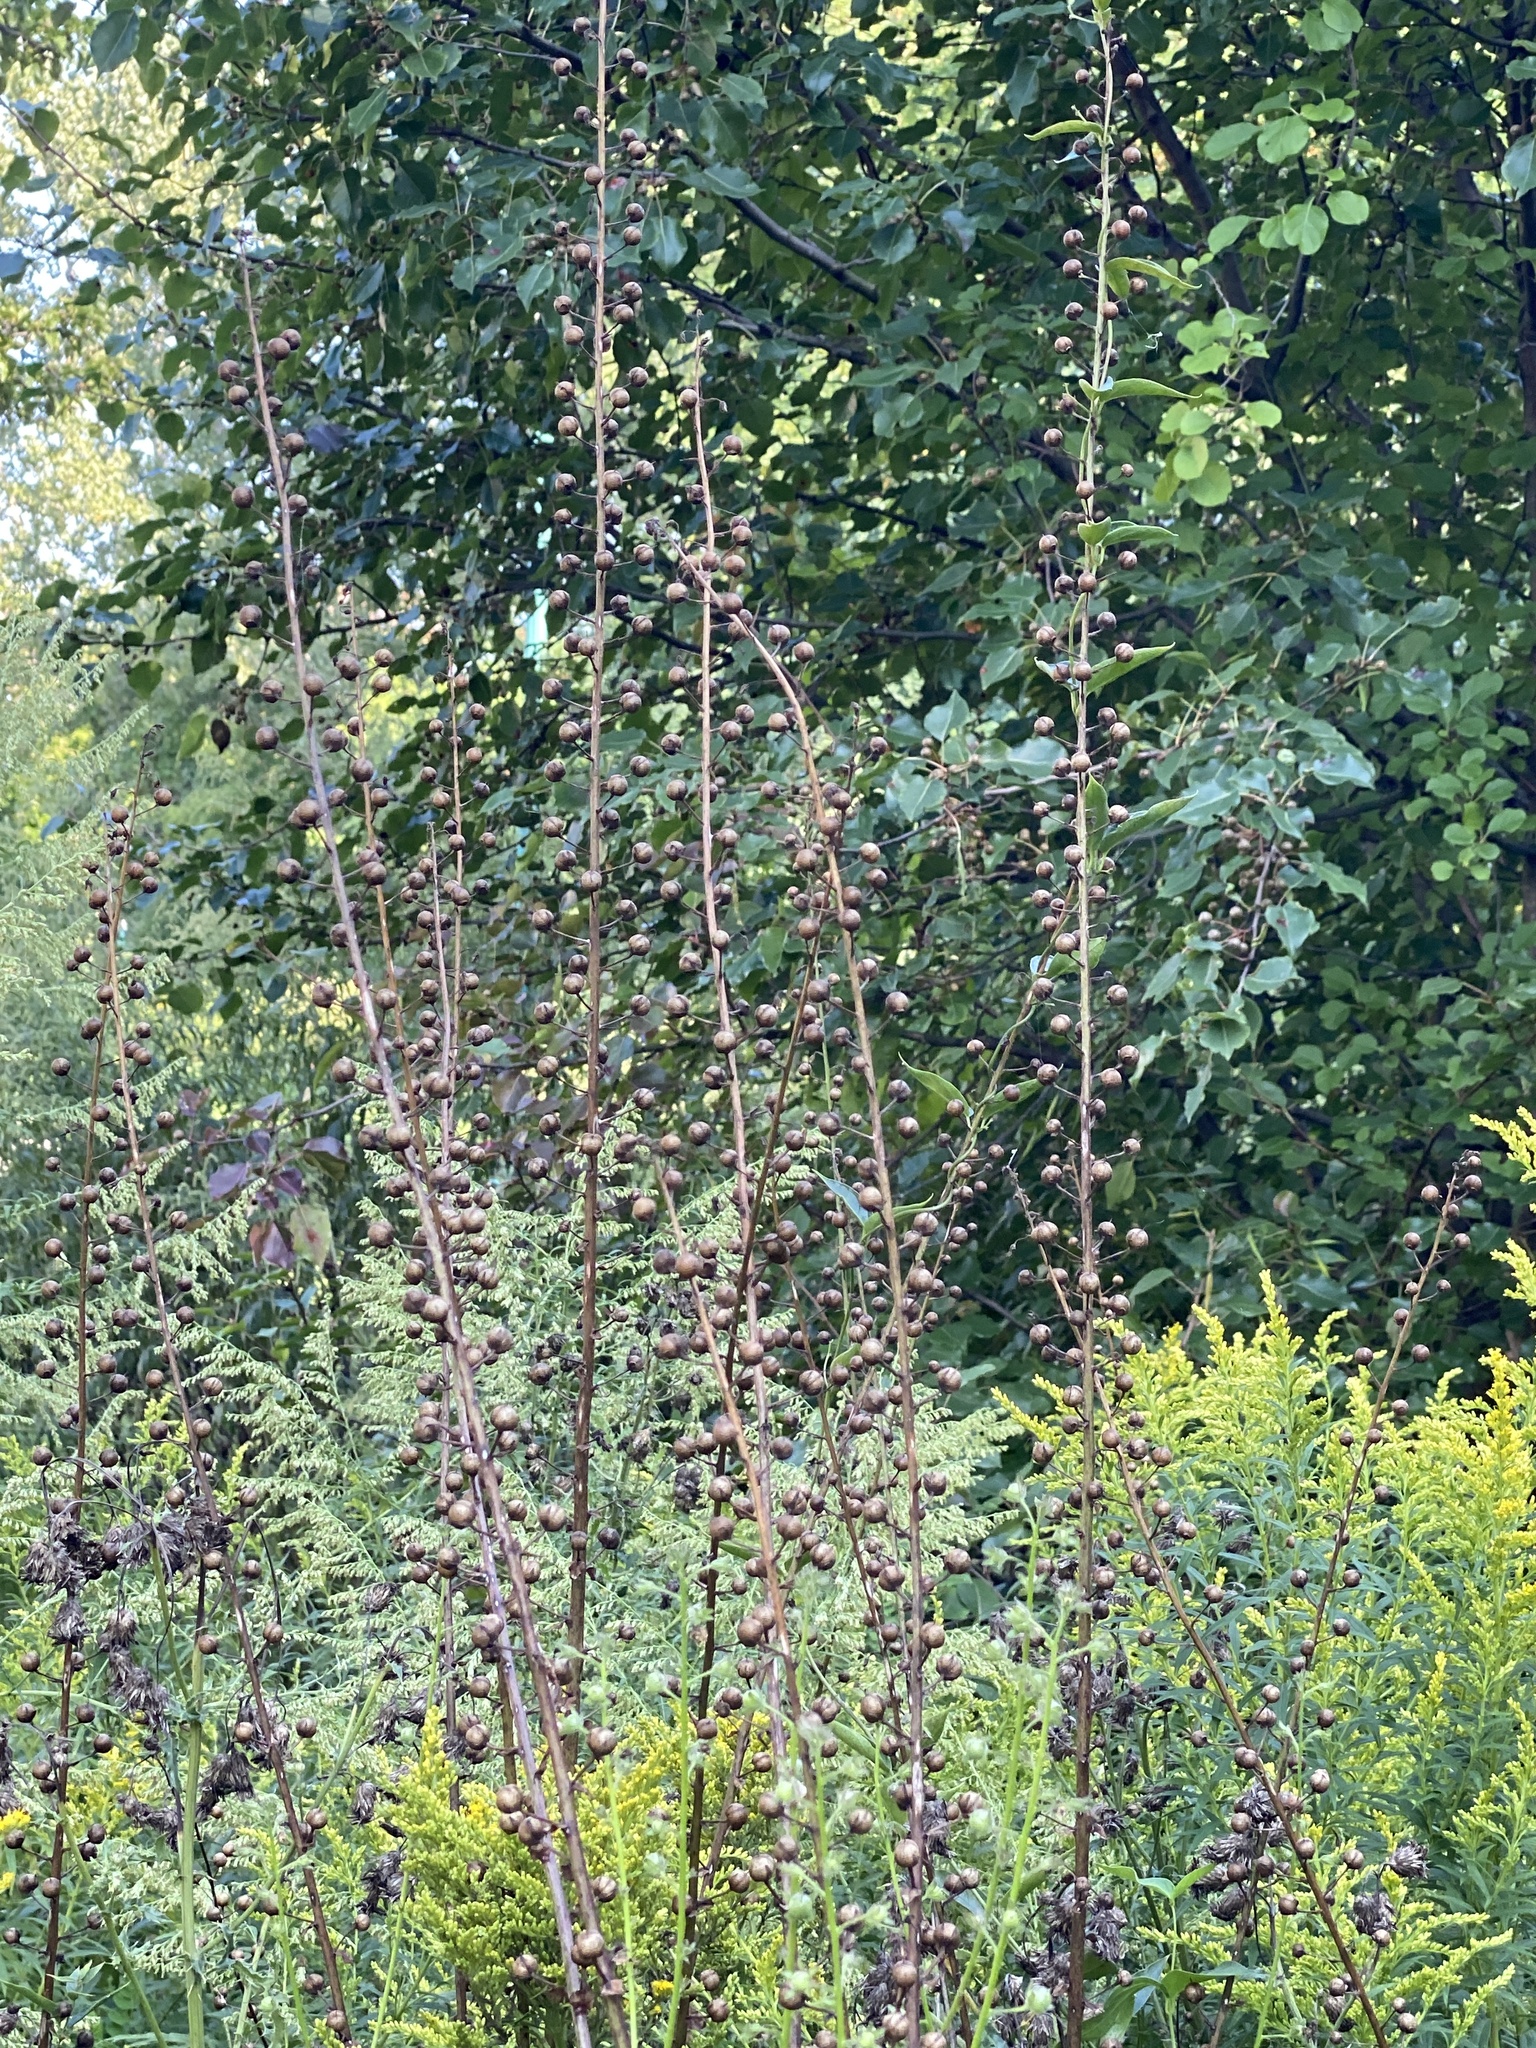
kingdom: Plantae
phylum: Tracheophyta
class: Magnoliopsida
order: Lamiales
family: Scrophulariaceae
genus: Verbascum
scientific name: Verbascum blattaria
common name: Moth mullein
